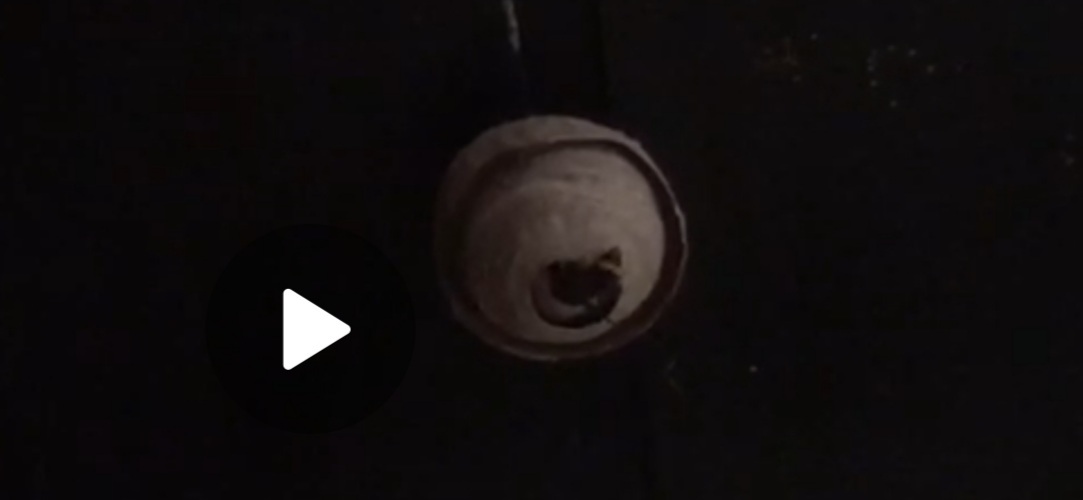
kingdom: Animalia
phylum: Arthropoda
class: Insecta
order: Hymenoptera
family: Vespidae
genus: Vespa
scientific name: Vespa velutina
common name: Asian hornet
